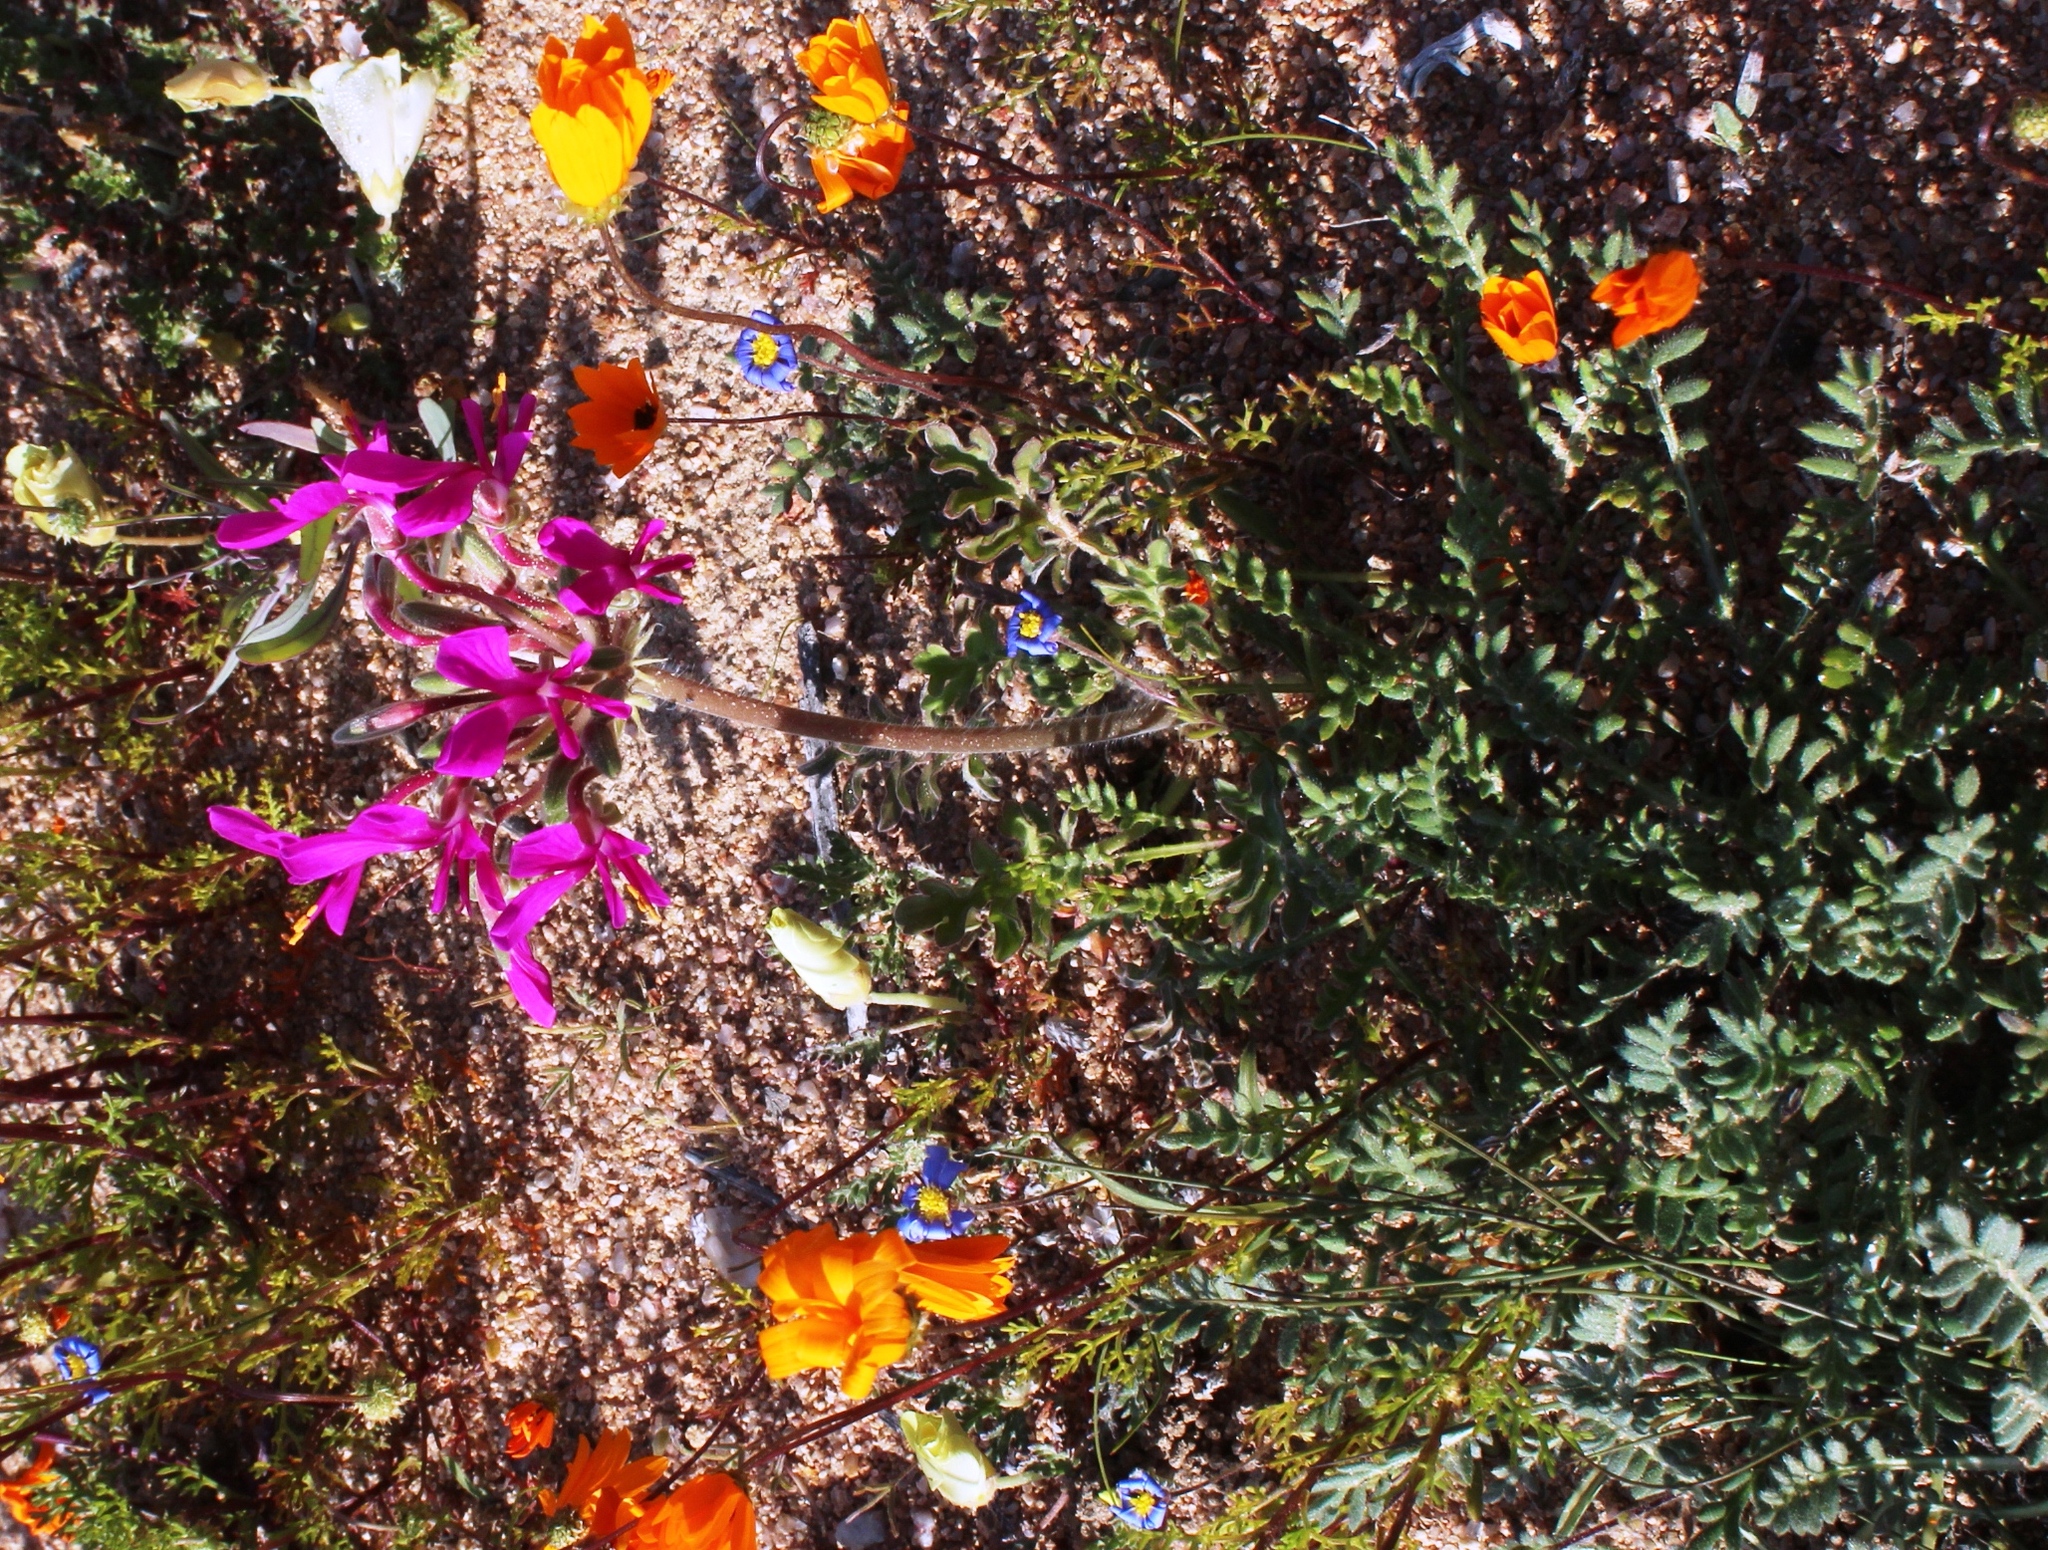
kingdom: Plantae
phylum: Tracheophyta
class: Magnoliopsida
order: Geraniales
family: Geraniaceae
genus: Pelargonium
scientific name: Pelargonium incrassatum
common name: Namaqualand beauty
